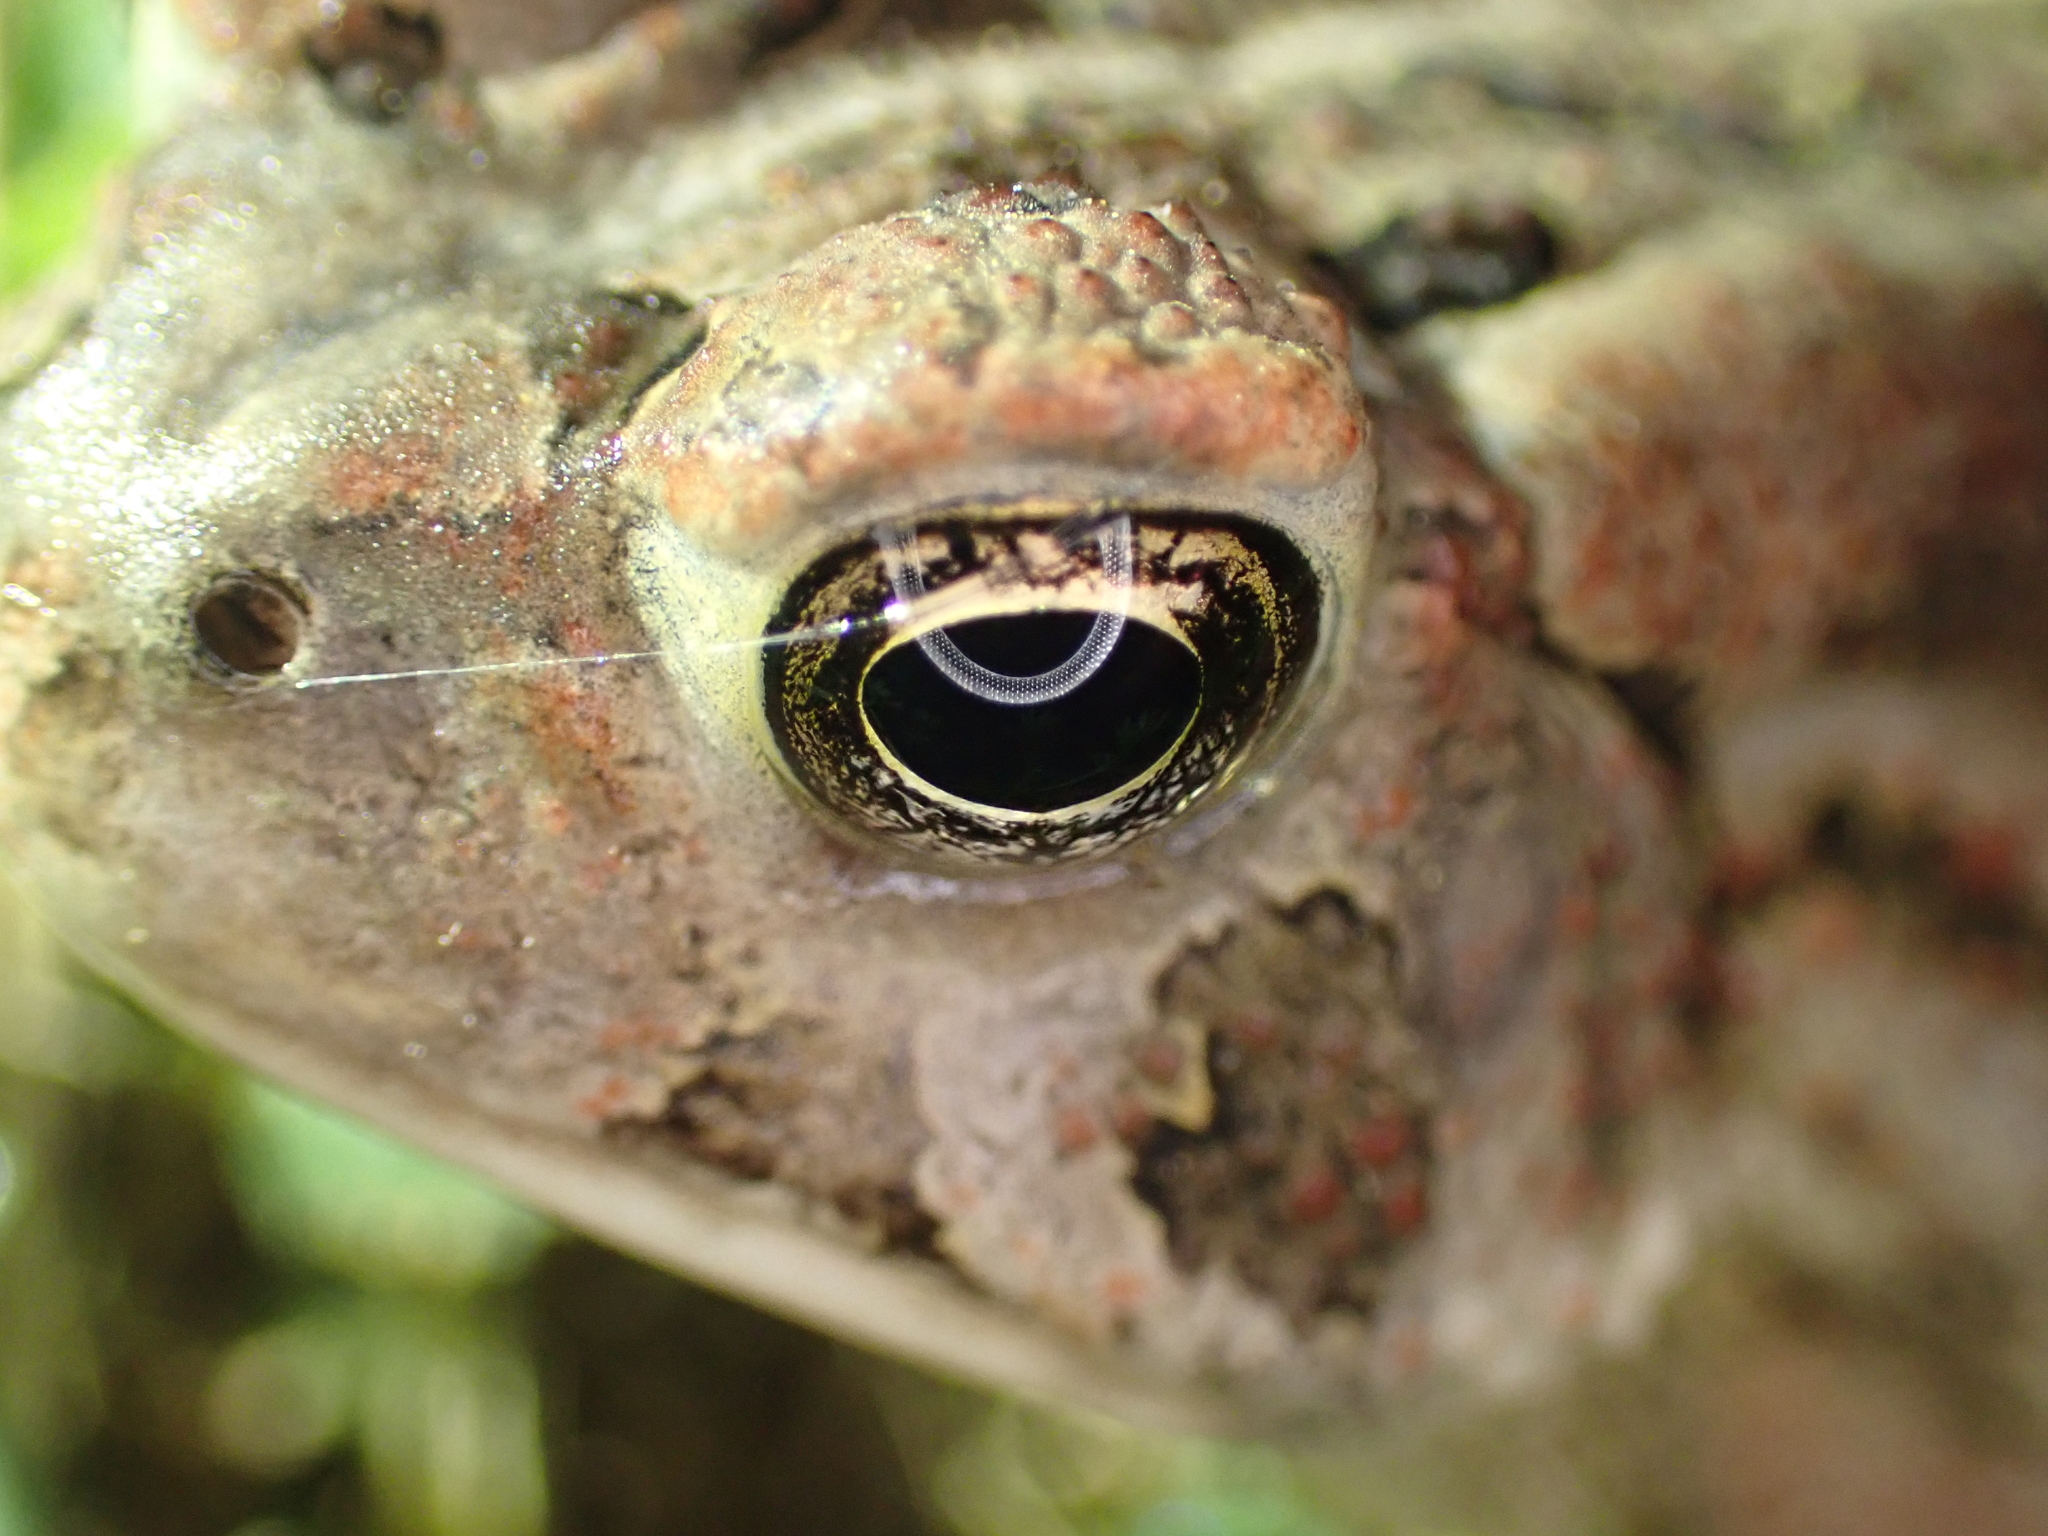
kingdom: Animalia
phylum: Chordata
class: Amphibia
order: Anura
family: Bufonidae
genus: Anaxyrus
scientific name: Anaxyrus fowleri
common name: Fowler's toad
